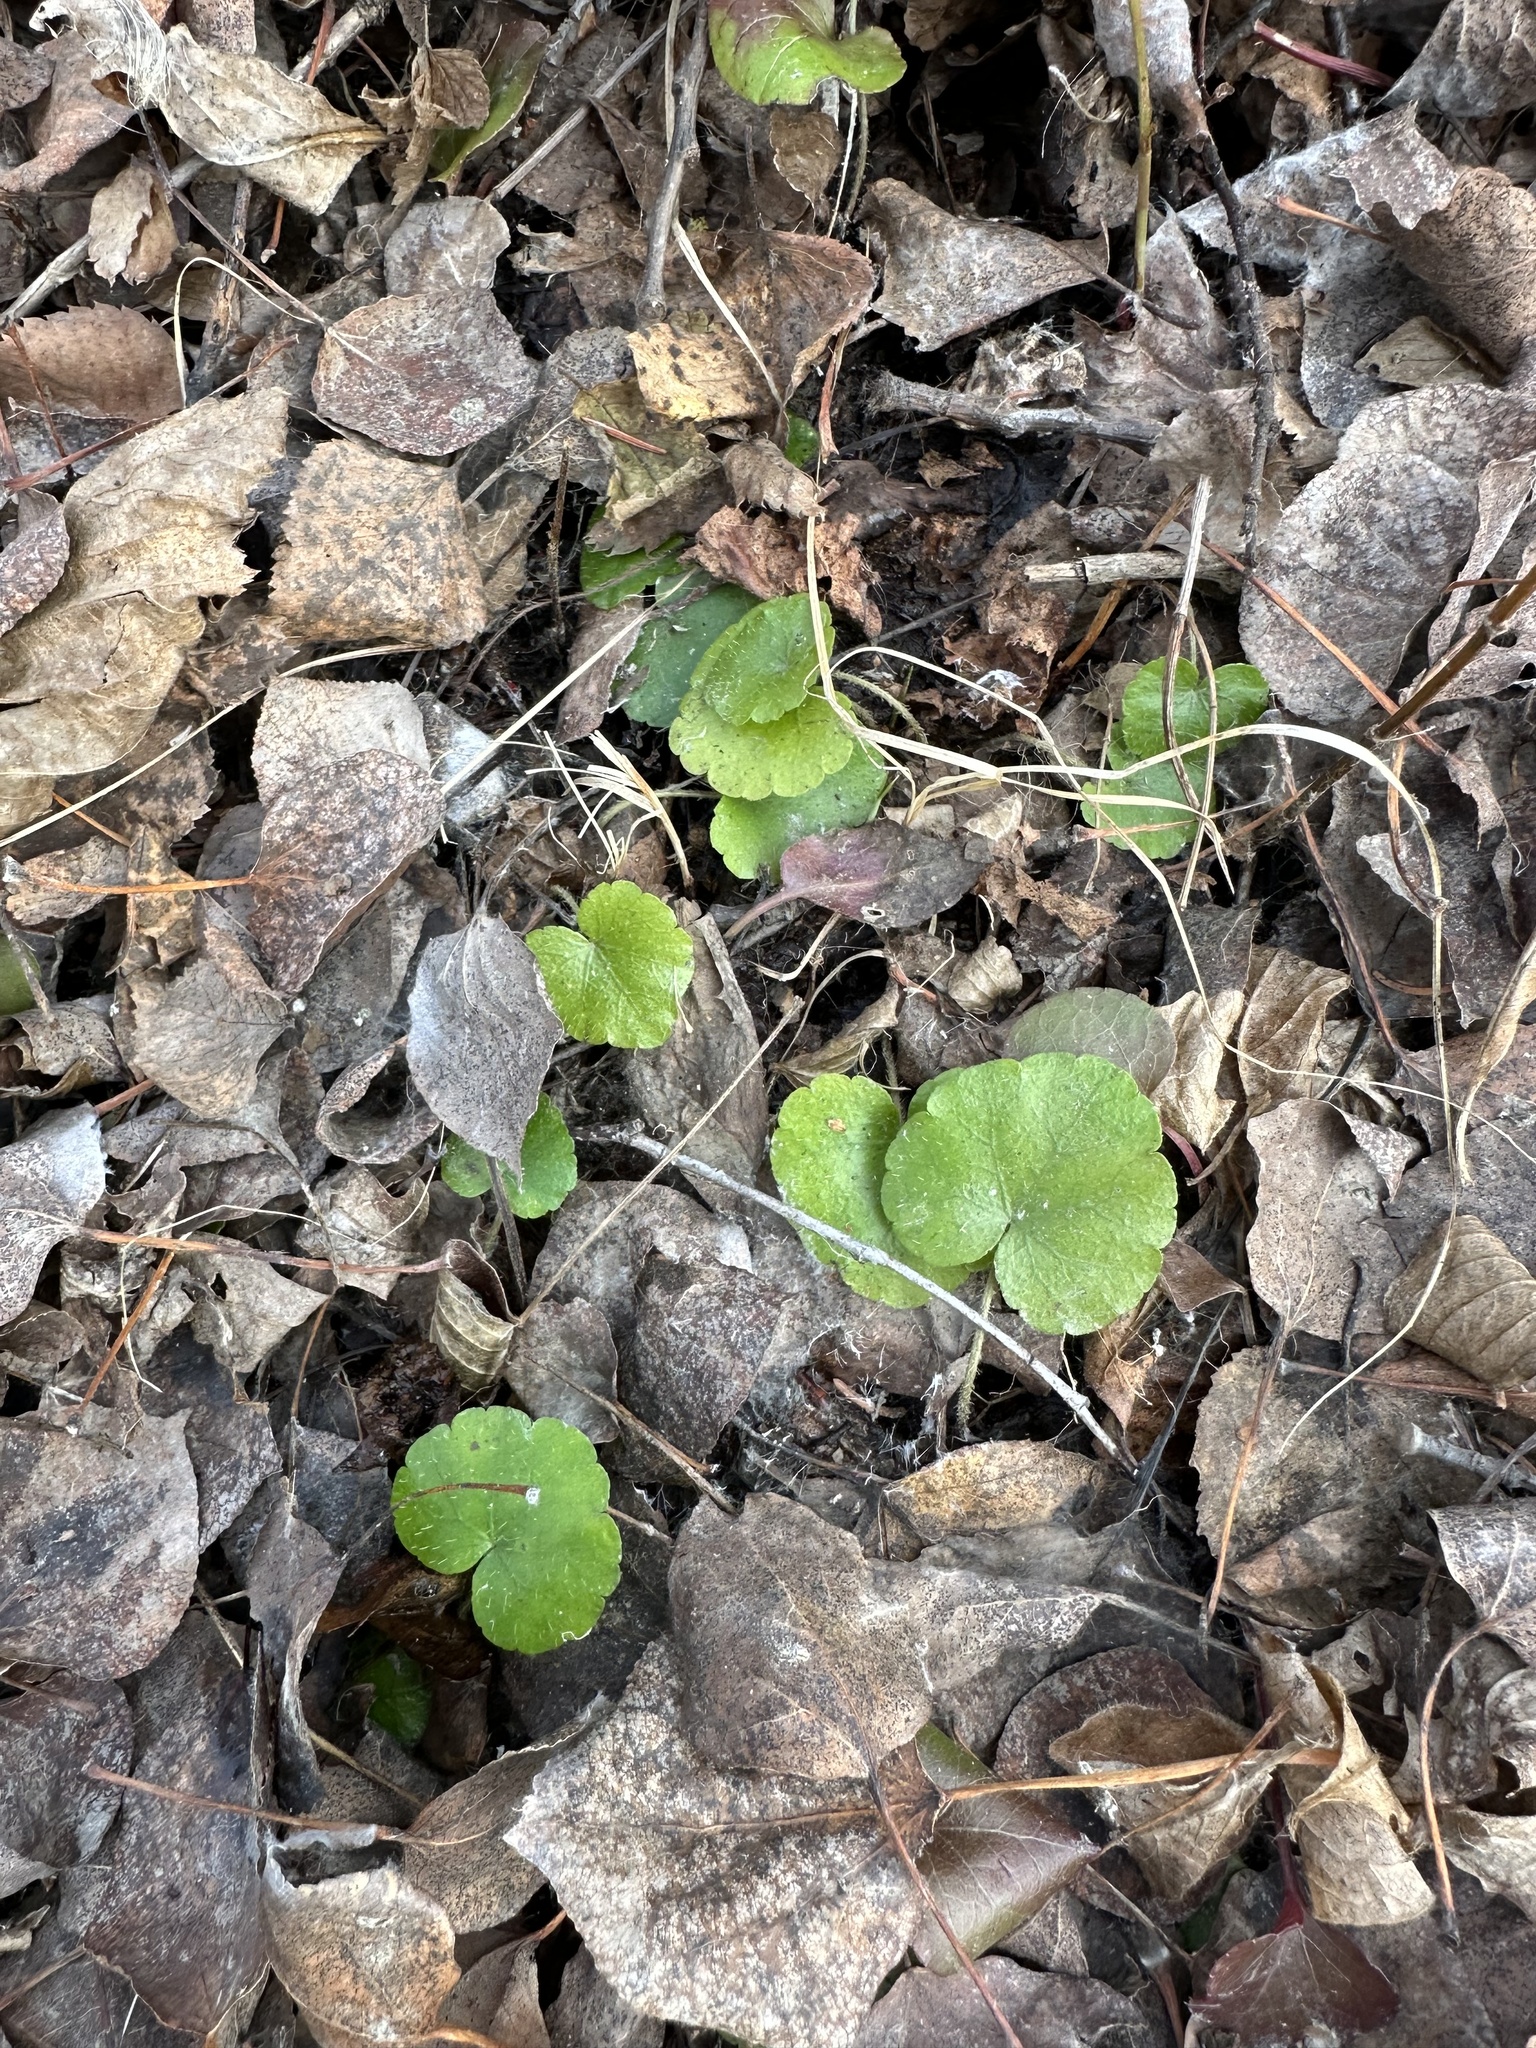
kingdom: Plantae
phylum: Tracheophyta
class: Magnoliopsida
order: Saxifragales
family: Saxifragaceae
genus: Mitella
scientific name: Mitella nuda
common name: Bare-stemmed bishop's-cap
